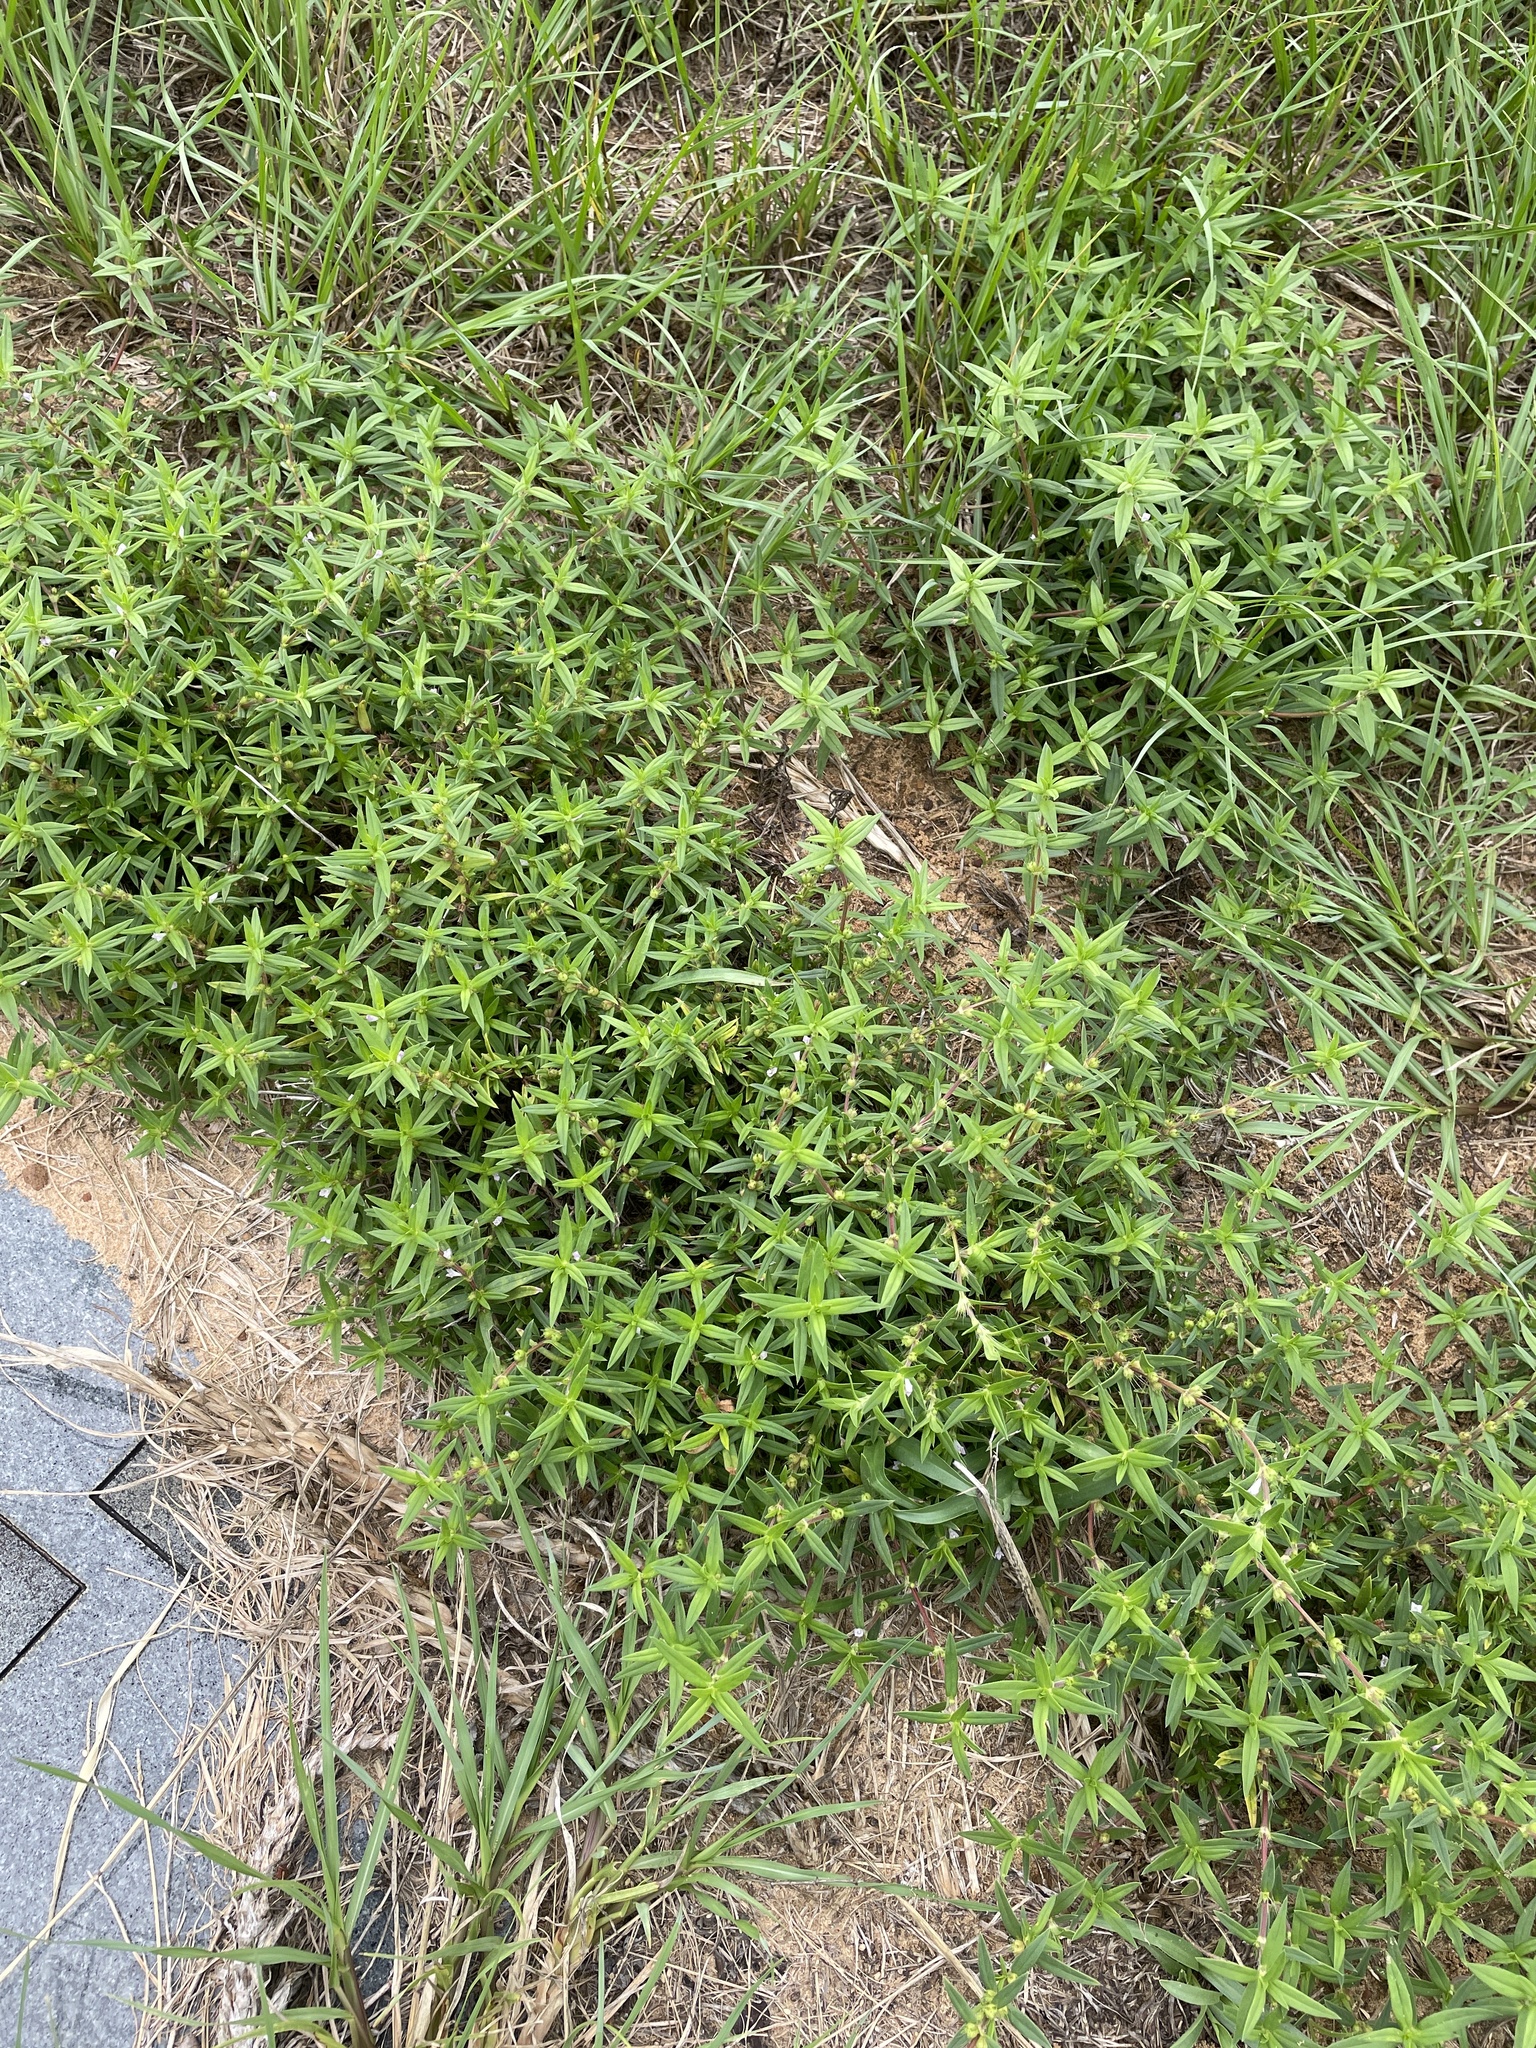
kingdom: Plantae
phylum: Tracheophyta
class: Magnoliopsida
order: Gentianales
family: Rubiaceae
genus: Hexasepalum
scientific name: Hexasepalum teres
